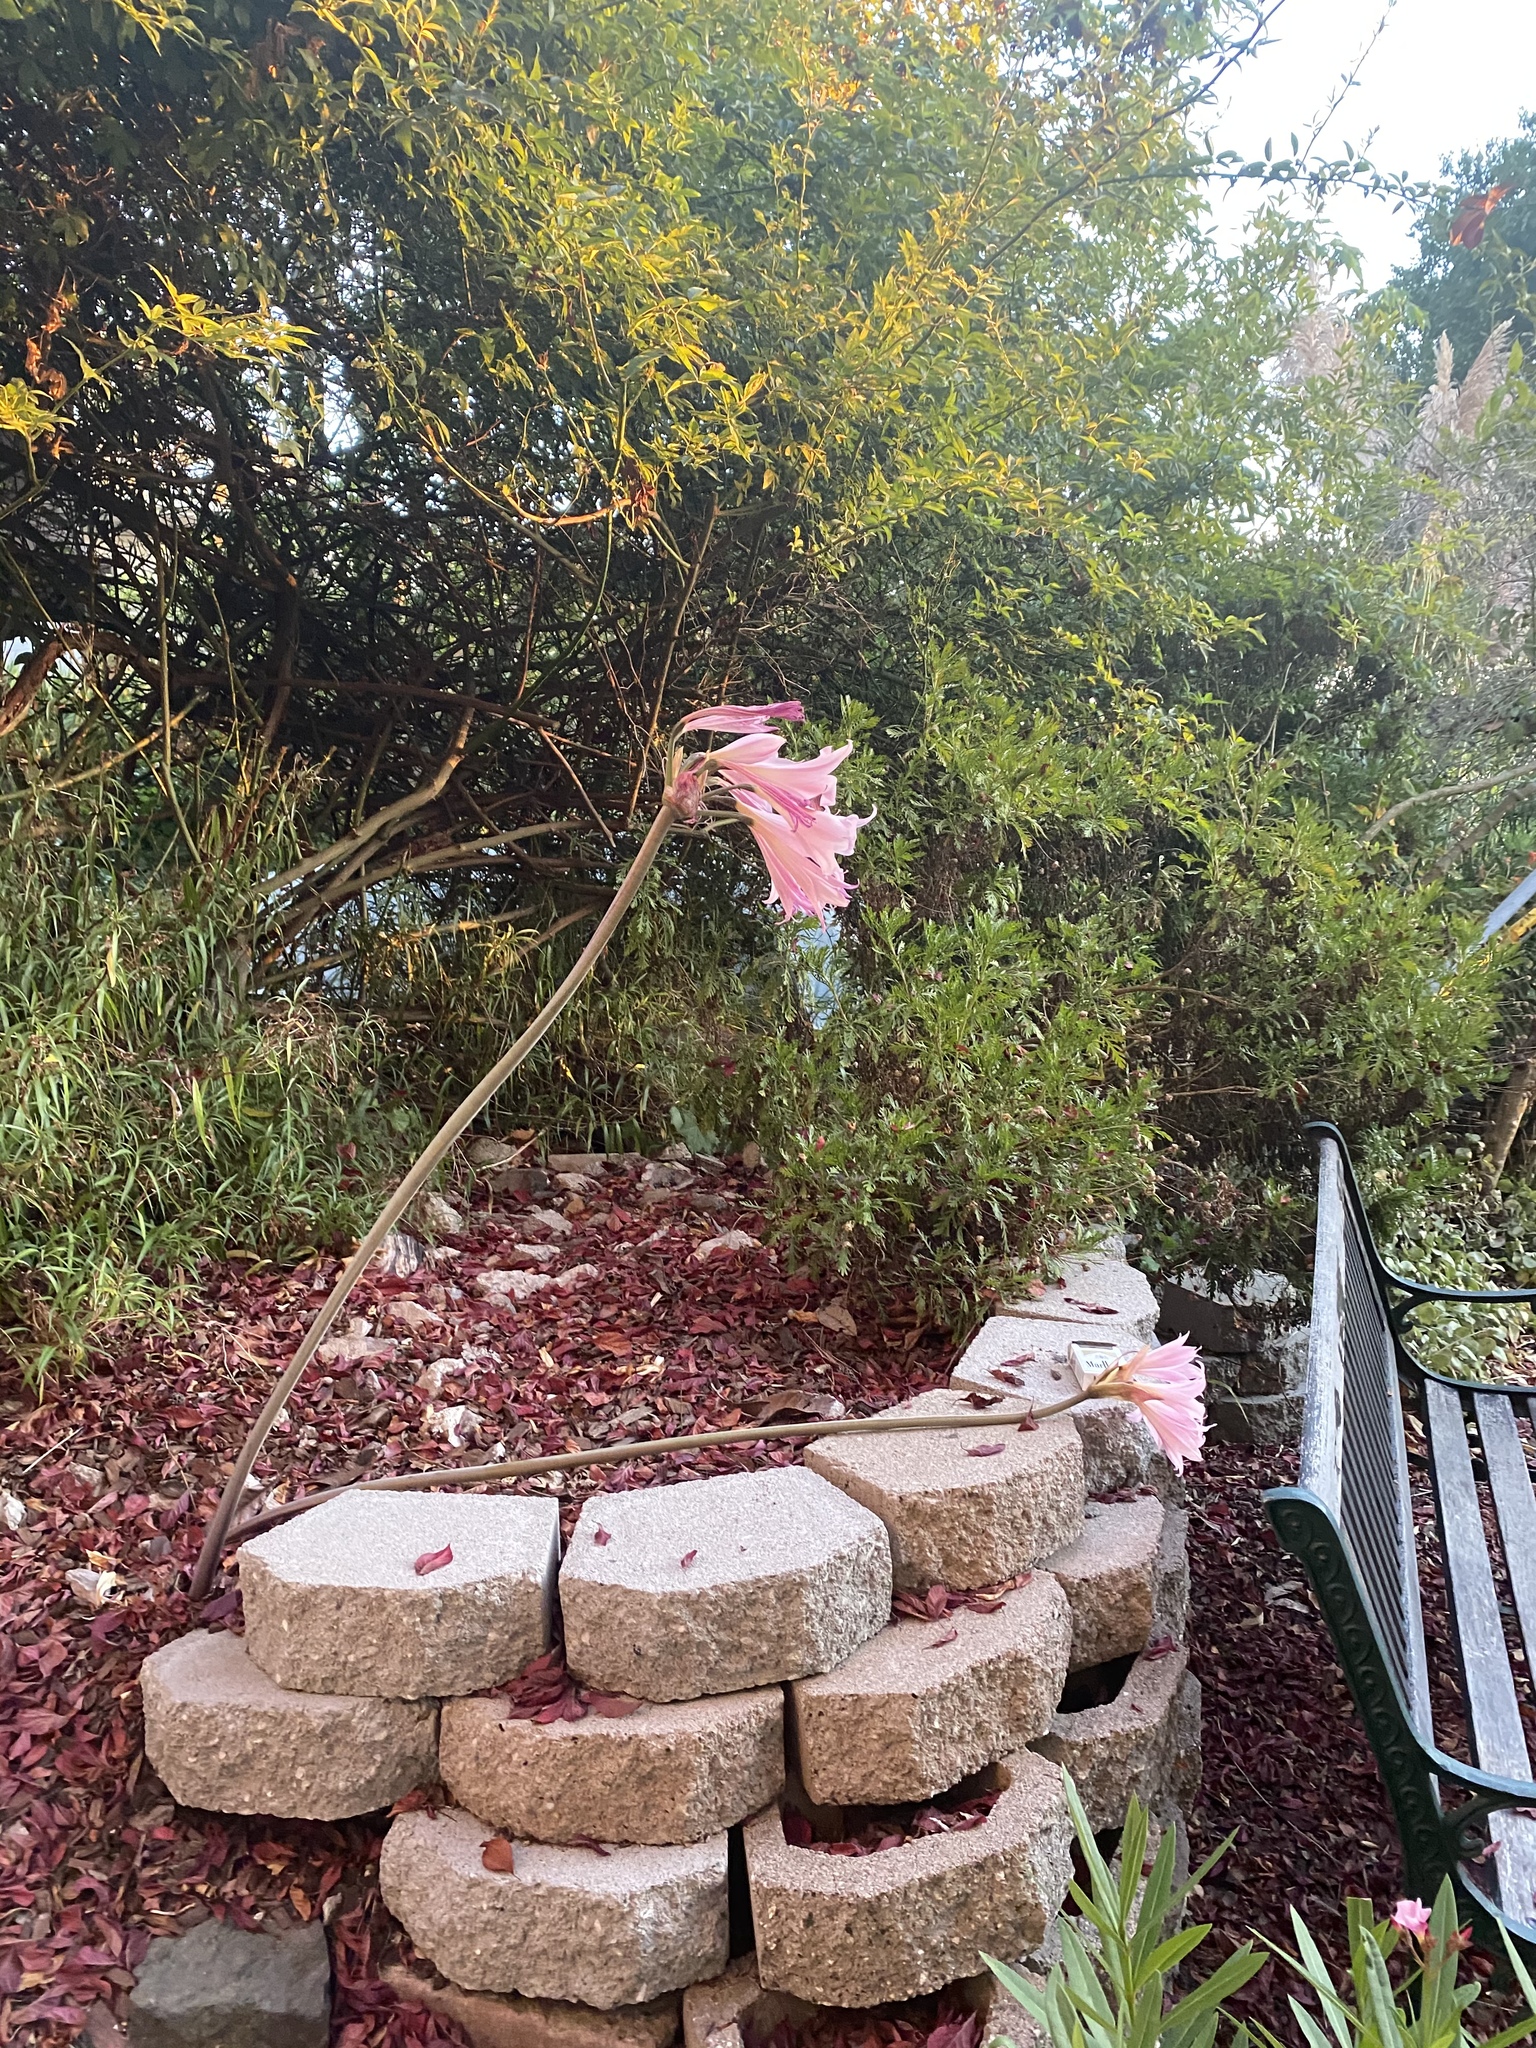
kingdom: Plantae
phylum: Tracheophyta
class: Liliopsida
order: Asparagales
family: Amaryllidaceae
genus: Amaryllis
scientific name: Amaryllis belladonna
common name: Jersey lily
